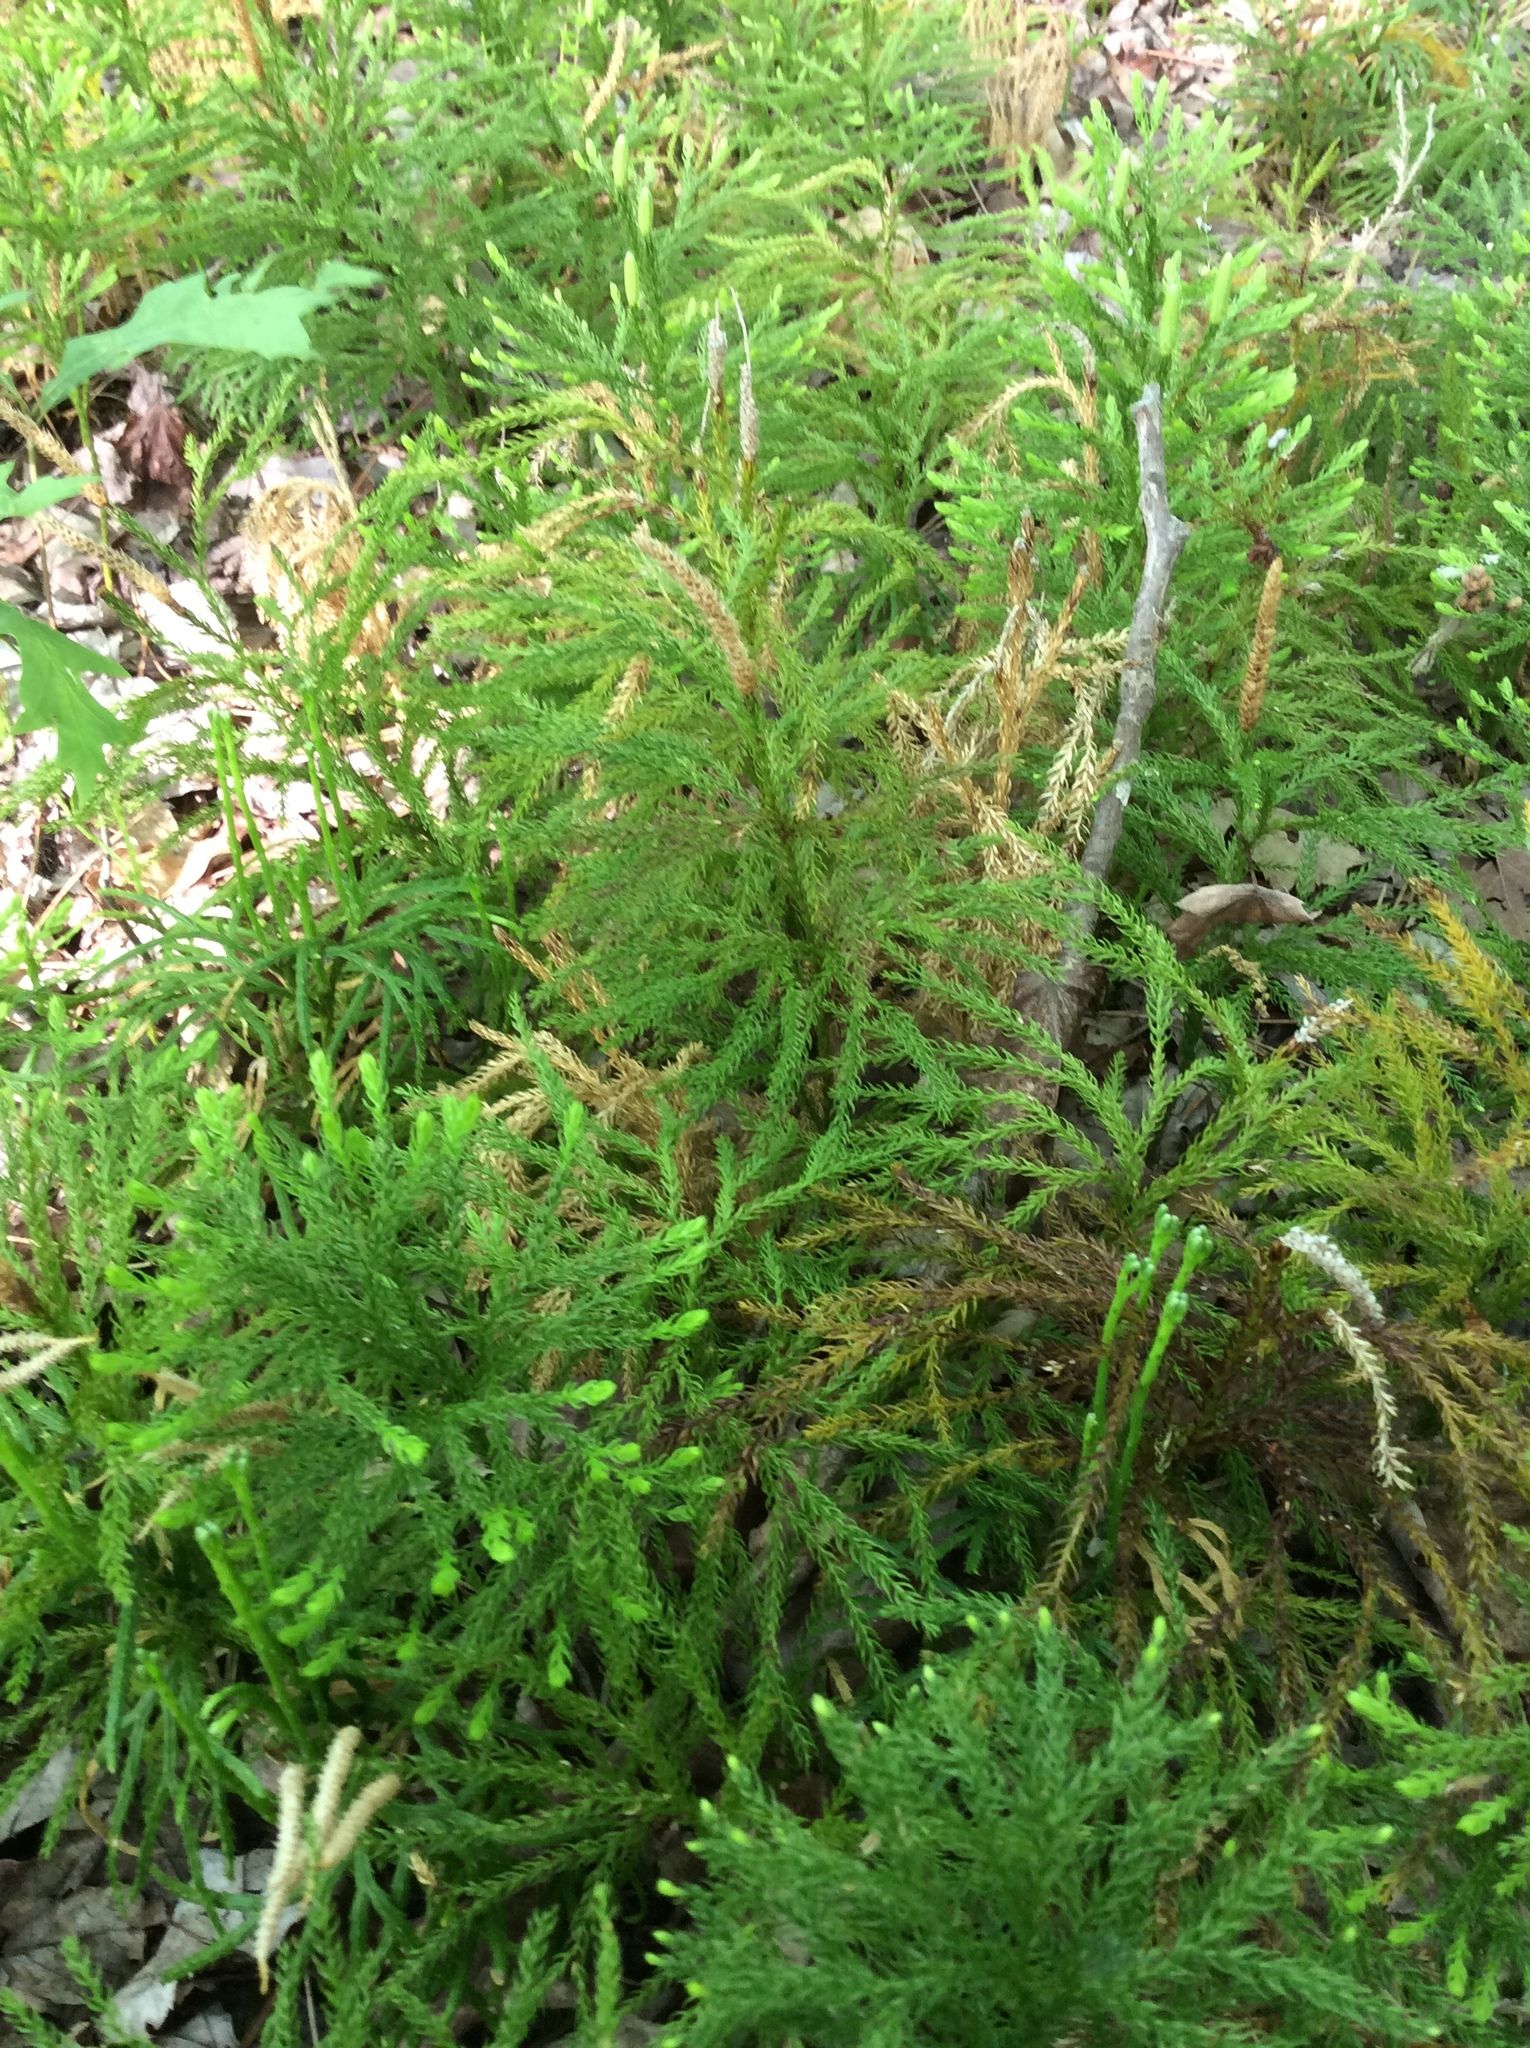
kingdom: Plantae
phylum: Tracheophyta
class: Lycopodiopsida
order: Lycopodiales
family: Lycopodiaceae
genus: Dendrolycopodium
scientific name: Dendrolycopodium dendroideum
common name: Northern tree-clubmoss
